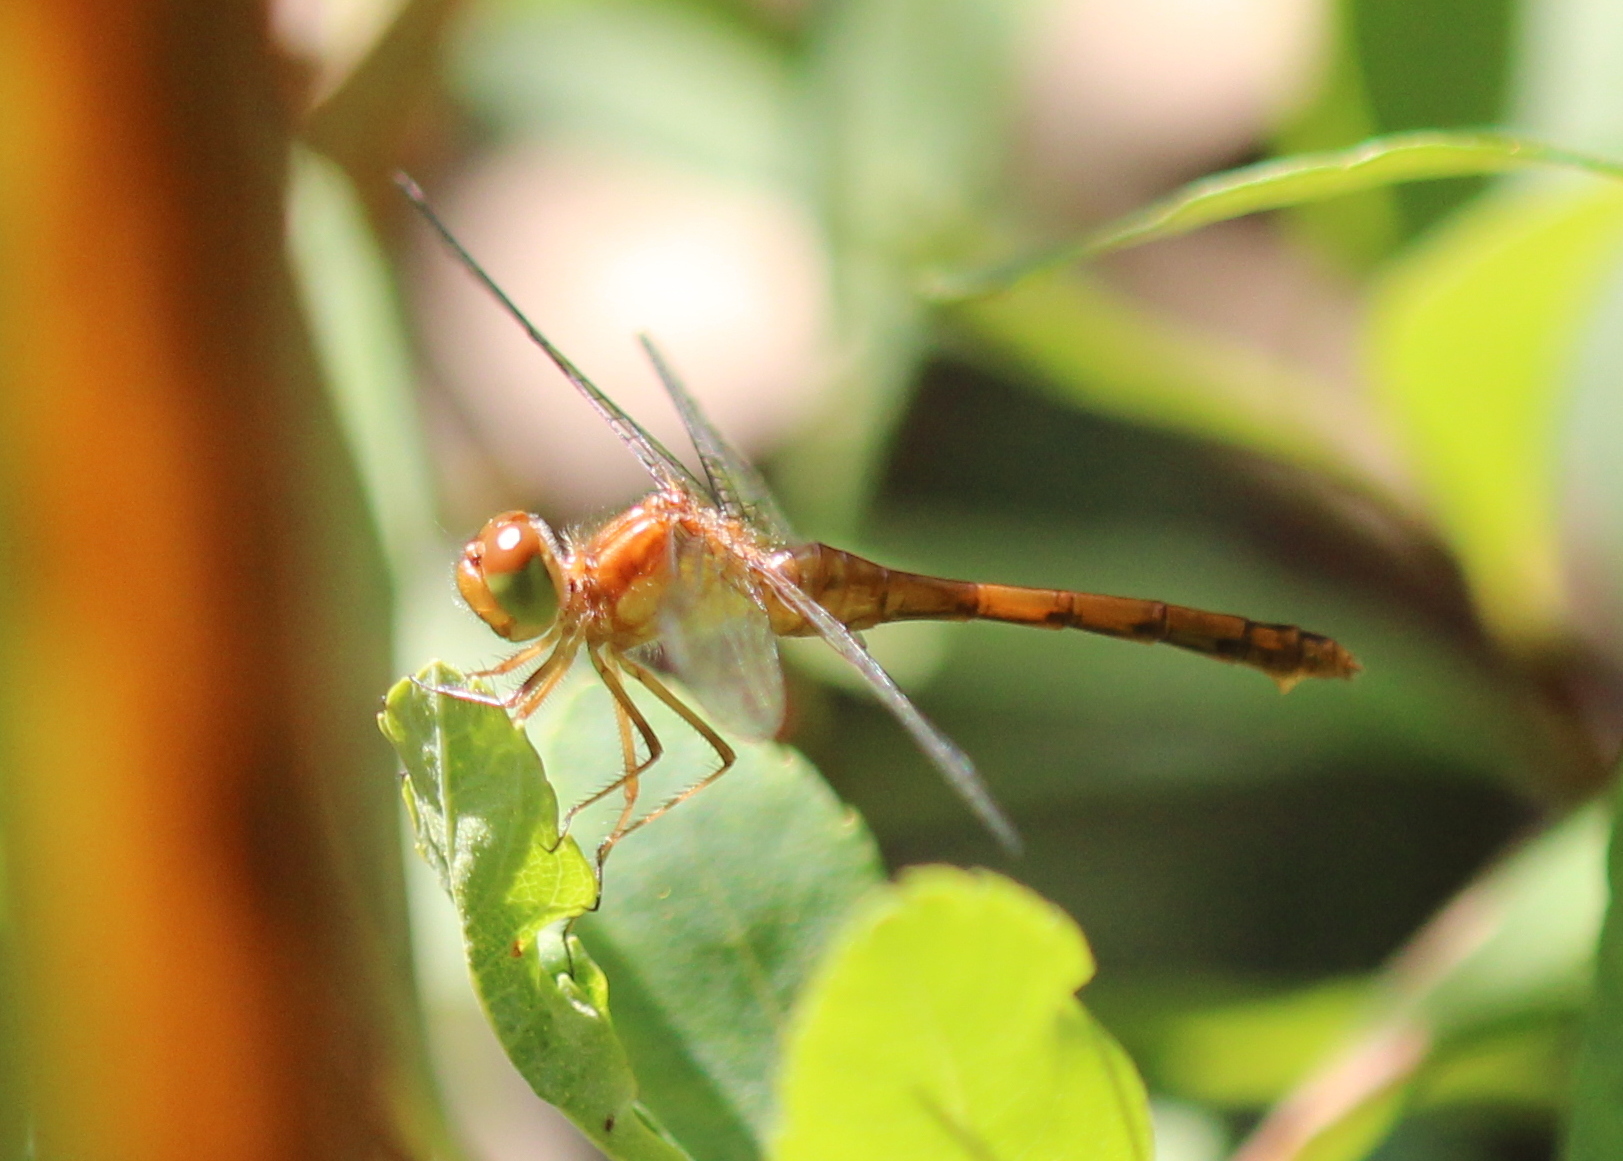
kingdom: Animalia
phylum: Arthropoda
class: Insecta
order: Odonata
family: Libellulidae
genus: Sympetrum
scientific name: Sympetrum vicinum
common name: Autumn meadowhawk
